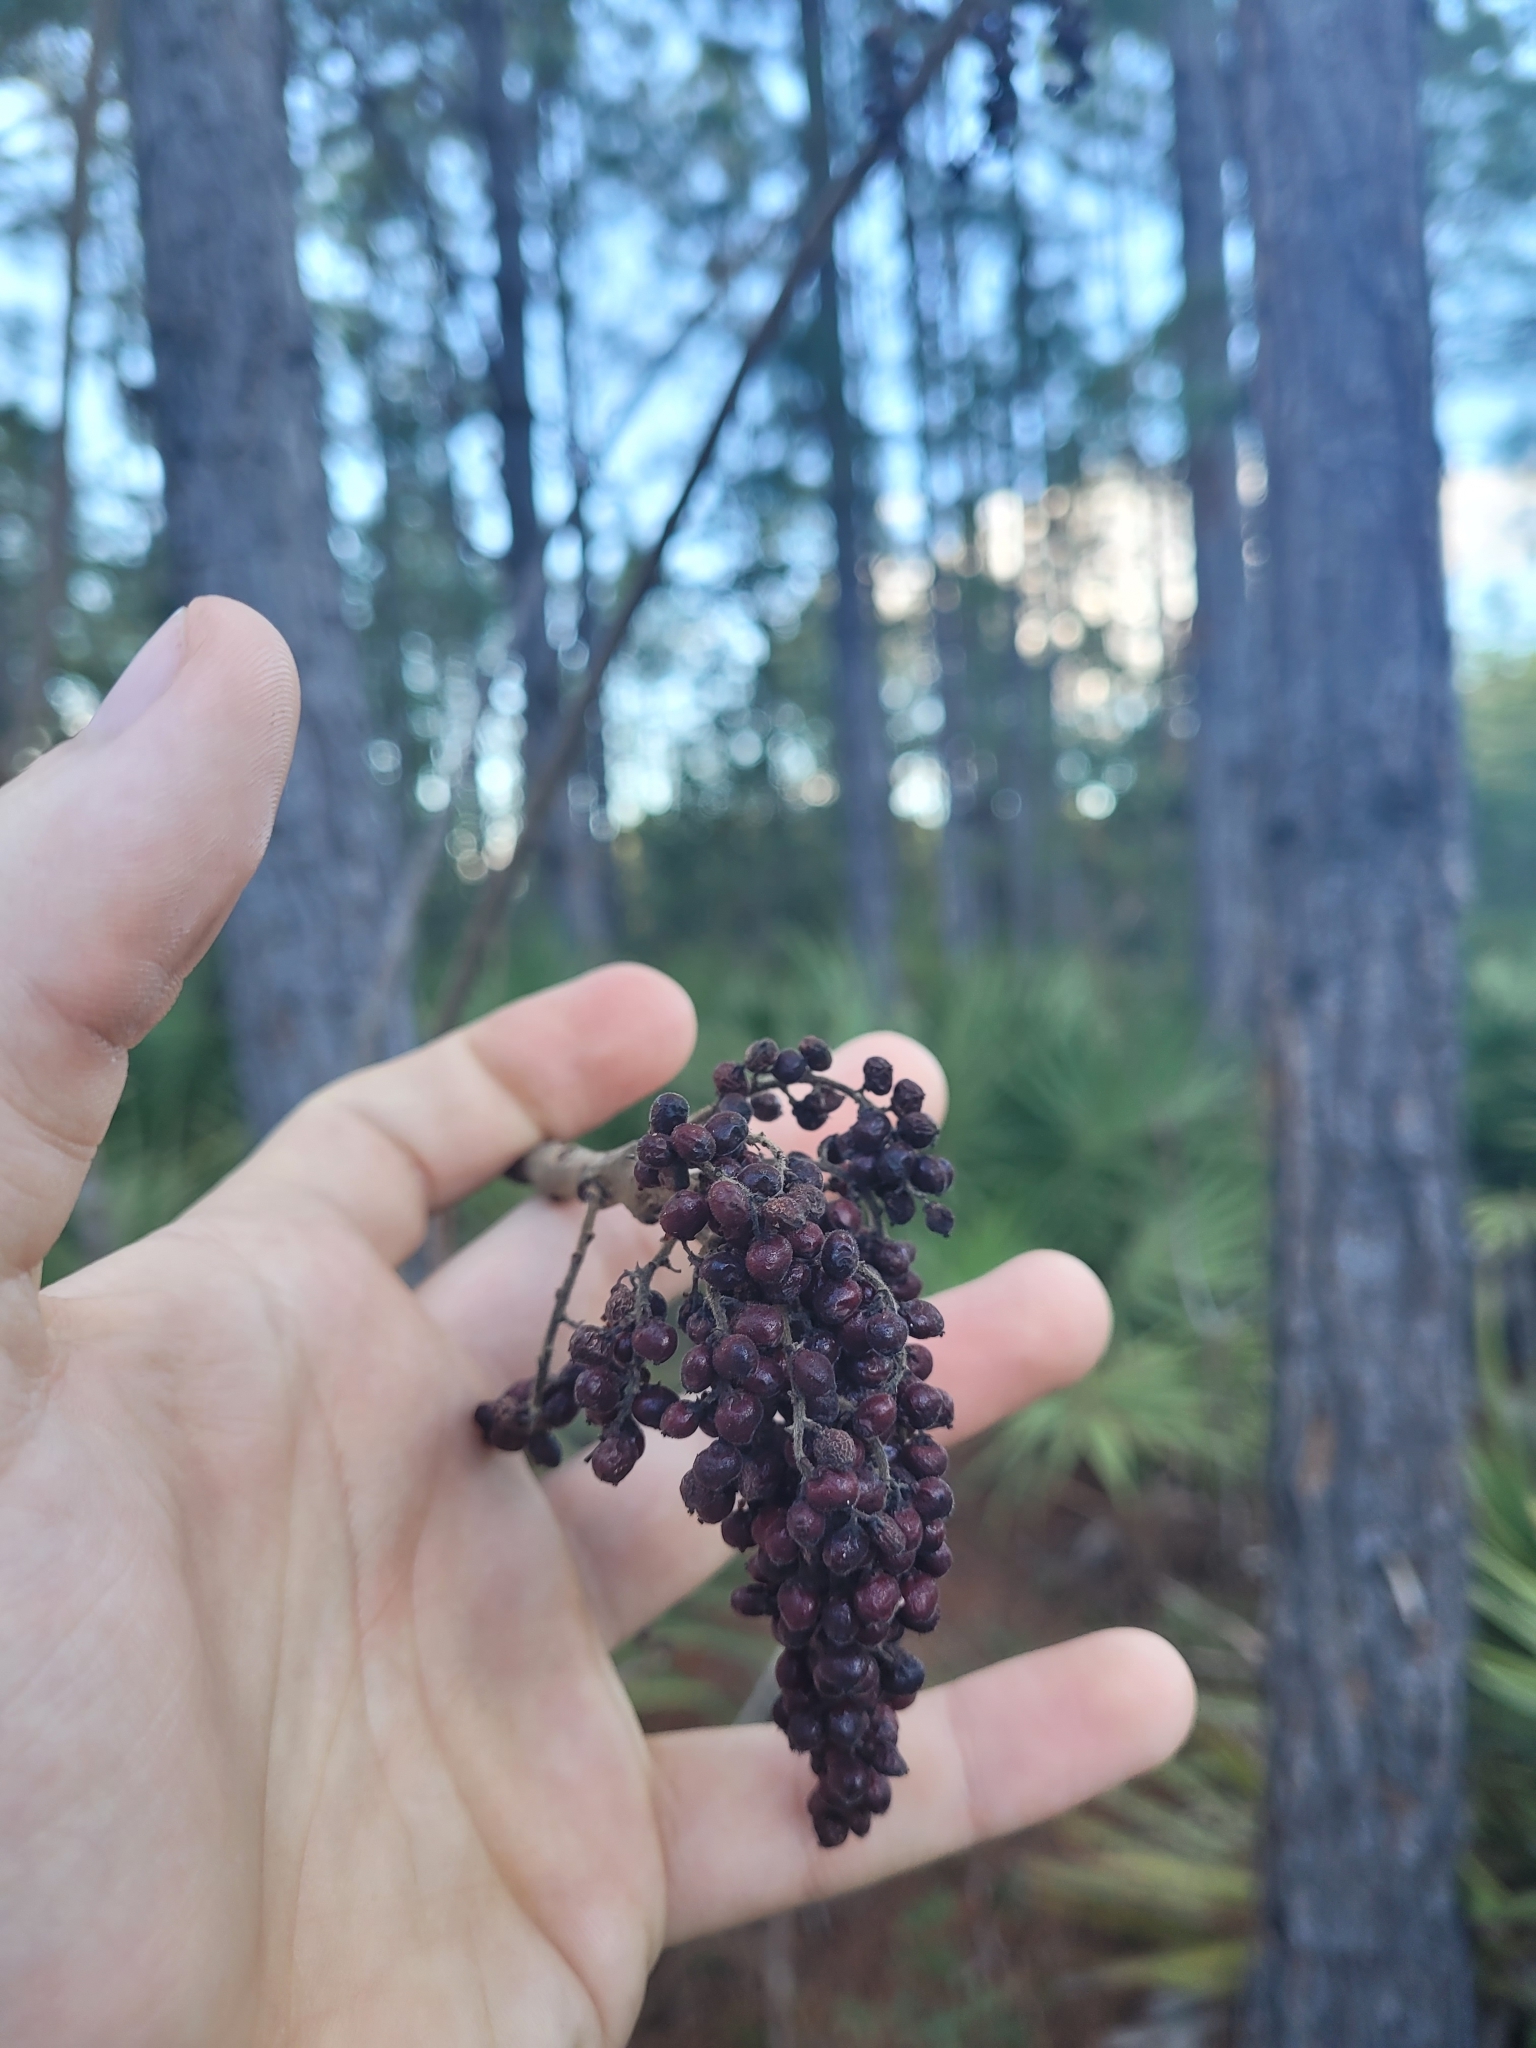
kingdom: Plantae
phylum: Tracheophyta
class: Magnoliopsida
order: Sapindales
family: Anacardiaceae
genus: Rhus
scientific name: Rhus copallina
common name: Shining sumac
